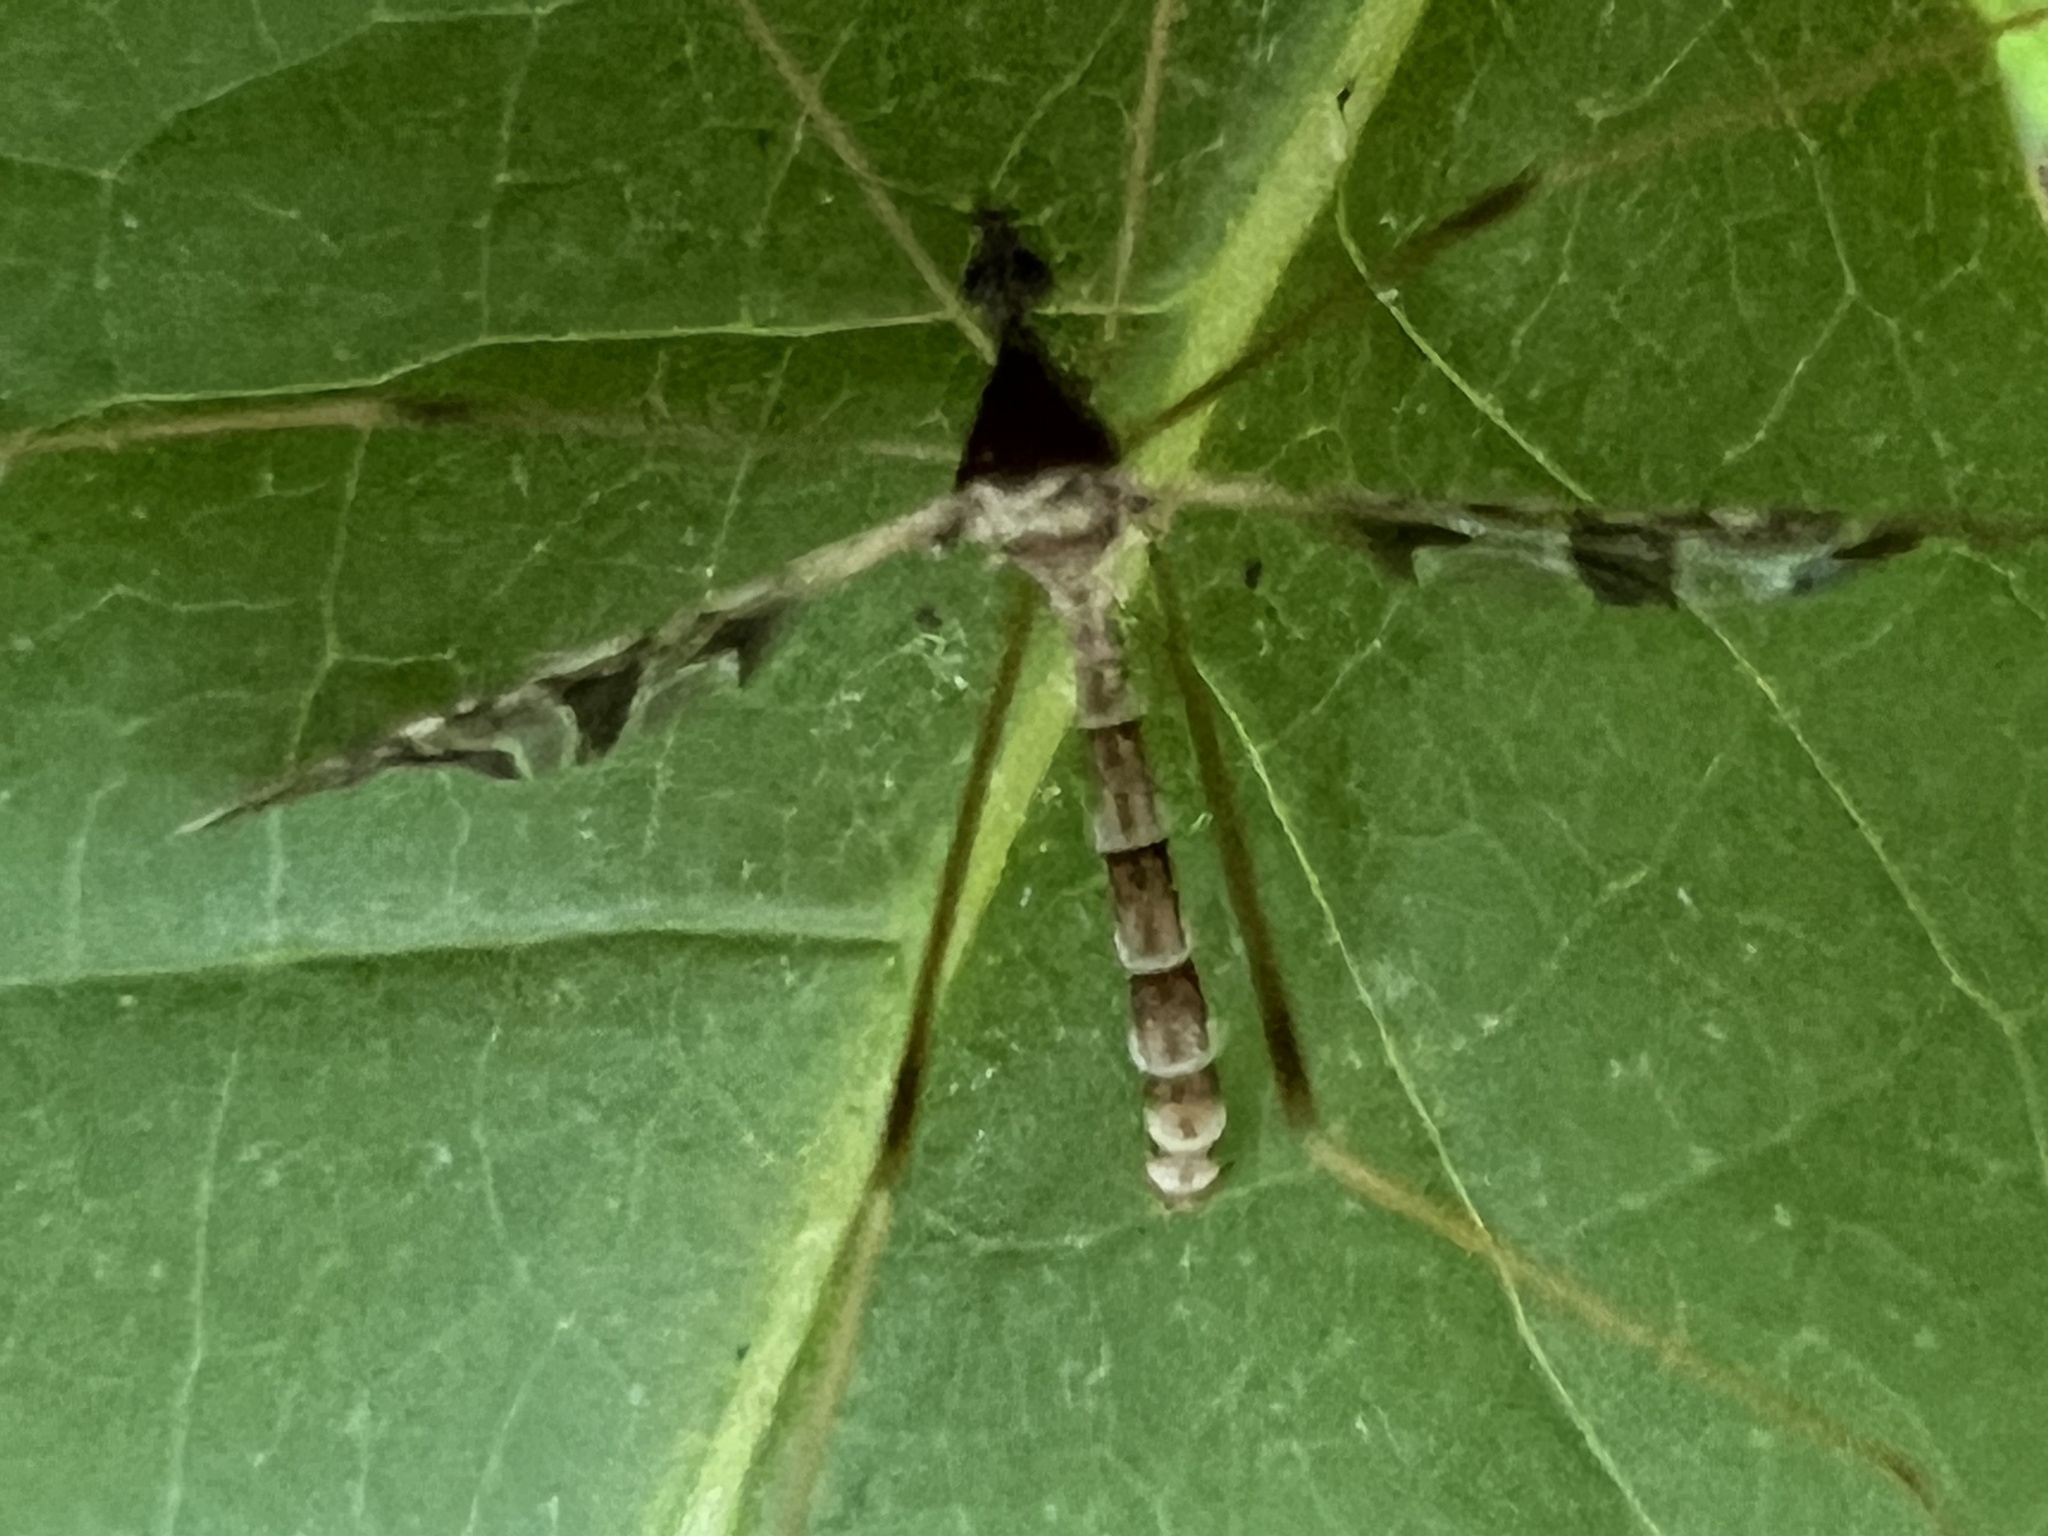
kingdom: Animalia
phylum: Arthropoda
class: Insecta
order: Diptera
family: Limoniidae
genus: Epiphragma
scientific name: Epiphragma solatrix
